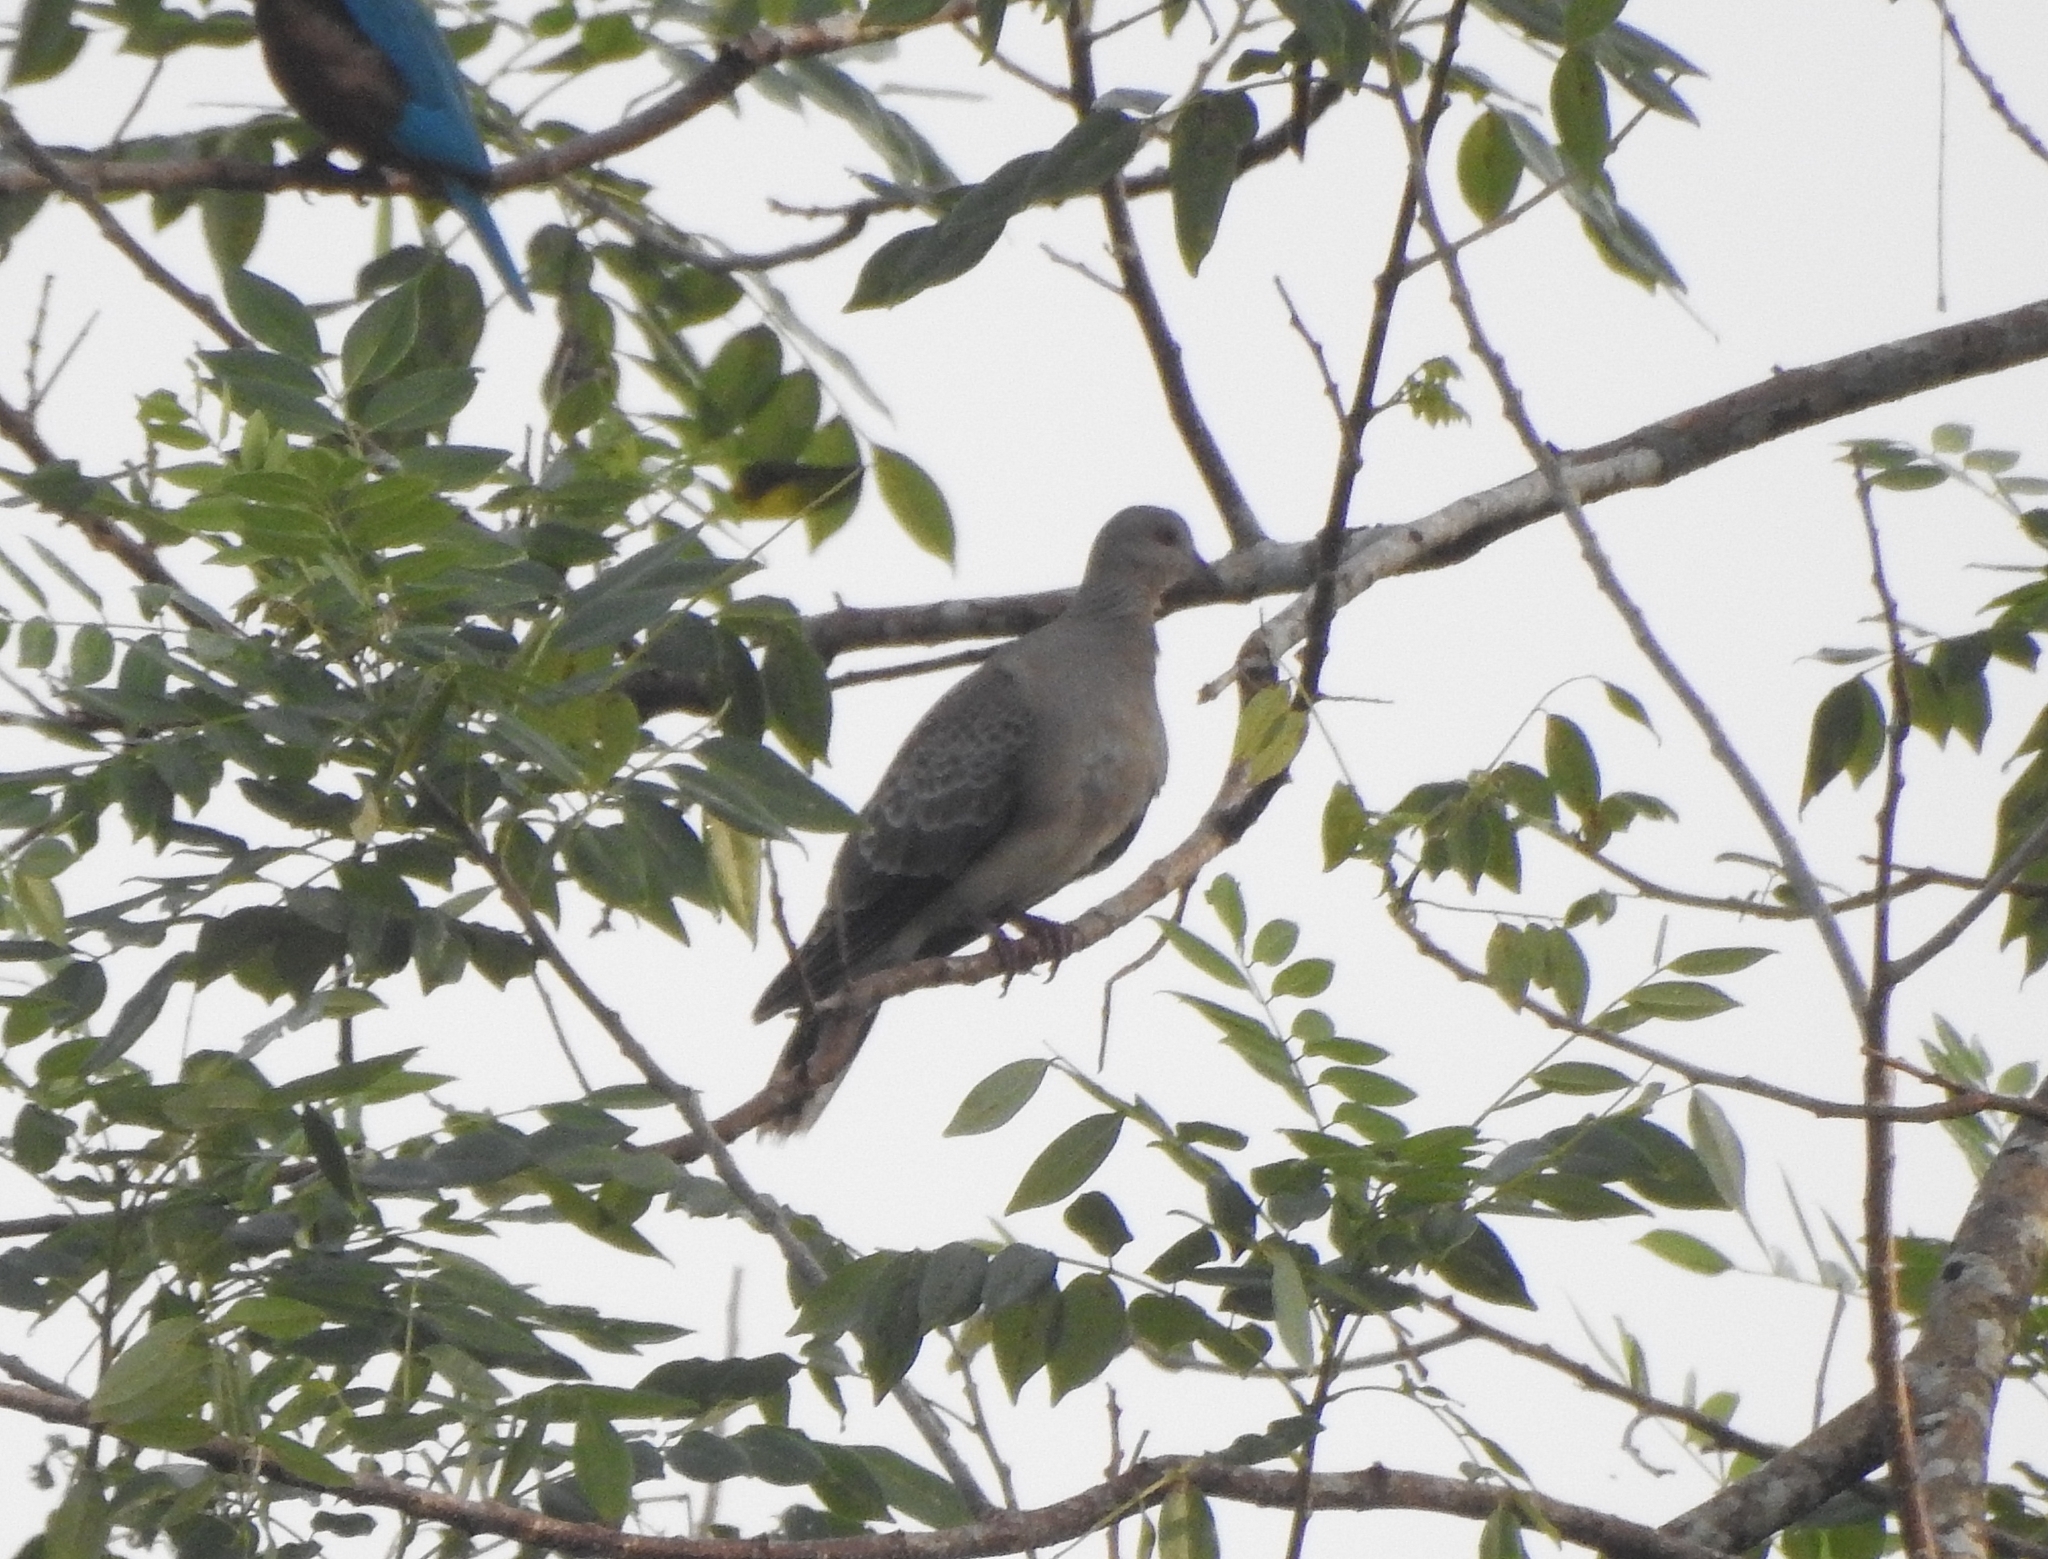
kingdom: Animalia
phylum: Chordata
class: Aves
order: Columbiformes
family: Columbidae
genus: Streptopelia
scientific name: Streptopelia orientalis
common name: Oriental turtle dove
